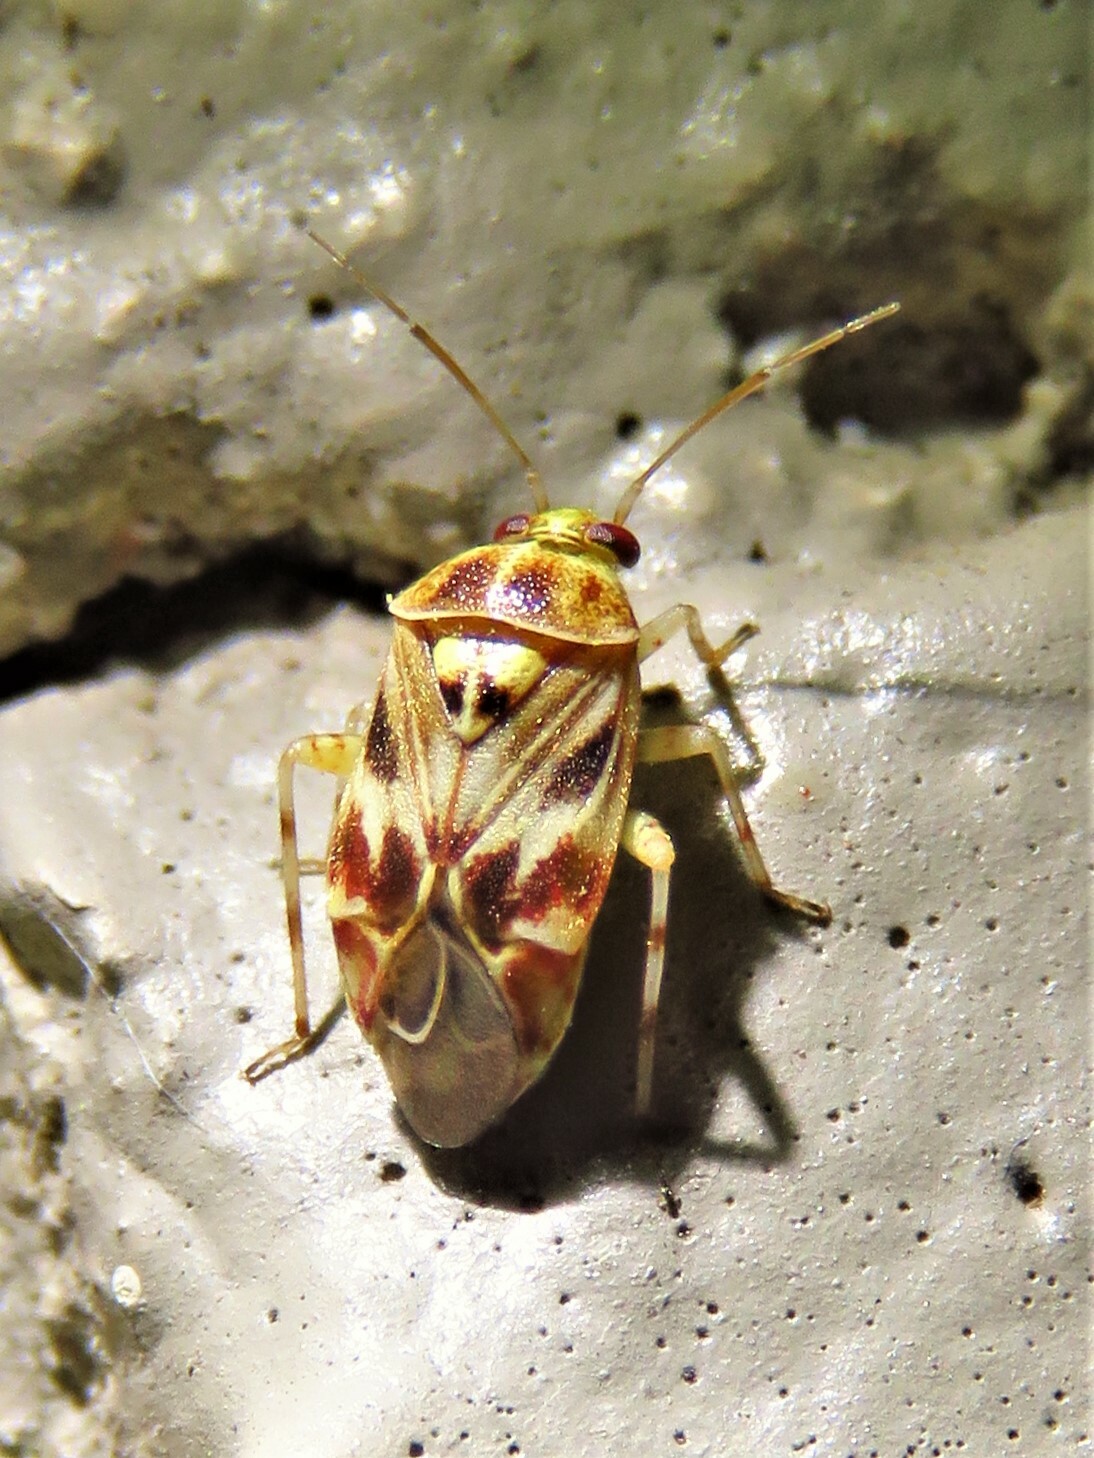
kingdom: Animalia
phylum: Arthropoda
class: Insecta
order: Hemiptera
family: Miridae
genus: Tropidosteptes
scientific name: Tropidosteptes quercicola
